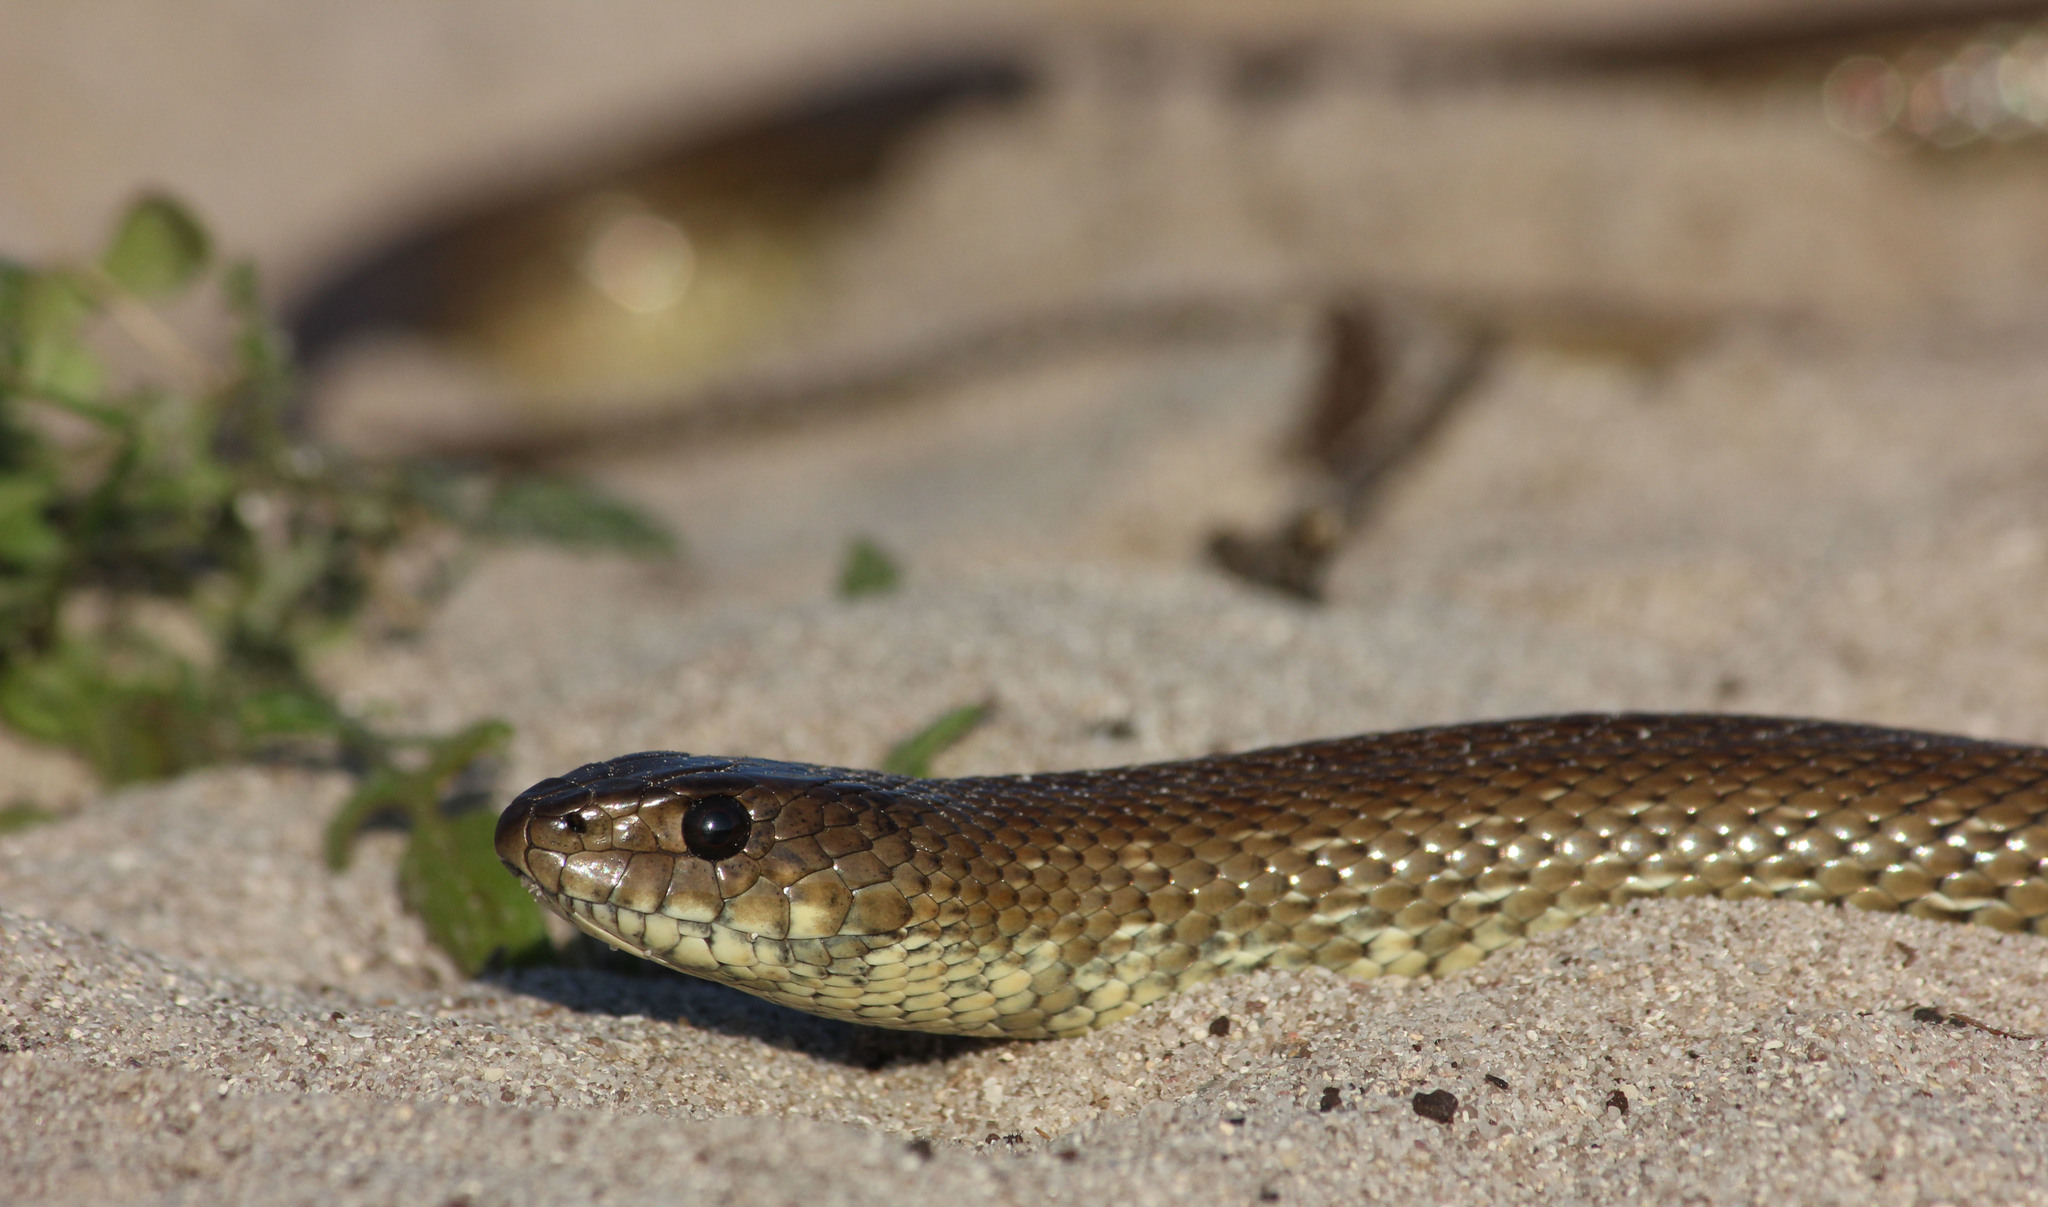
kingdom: Animalia
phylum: Chordata
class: Squamata
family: Pseudaspididae
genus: Pseudaspis
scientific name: Pseudaspis cana
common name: Mole snake
